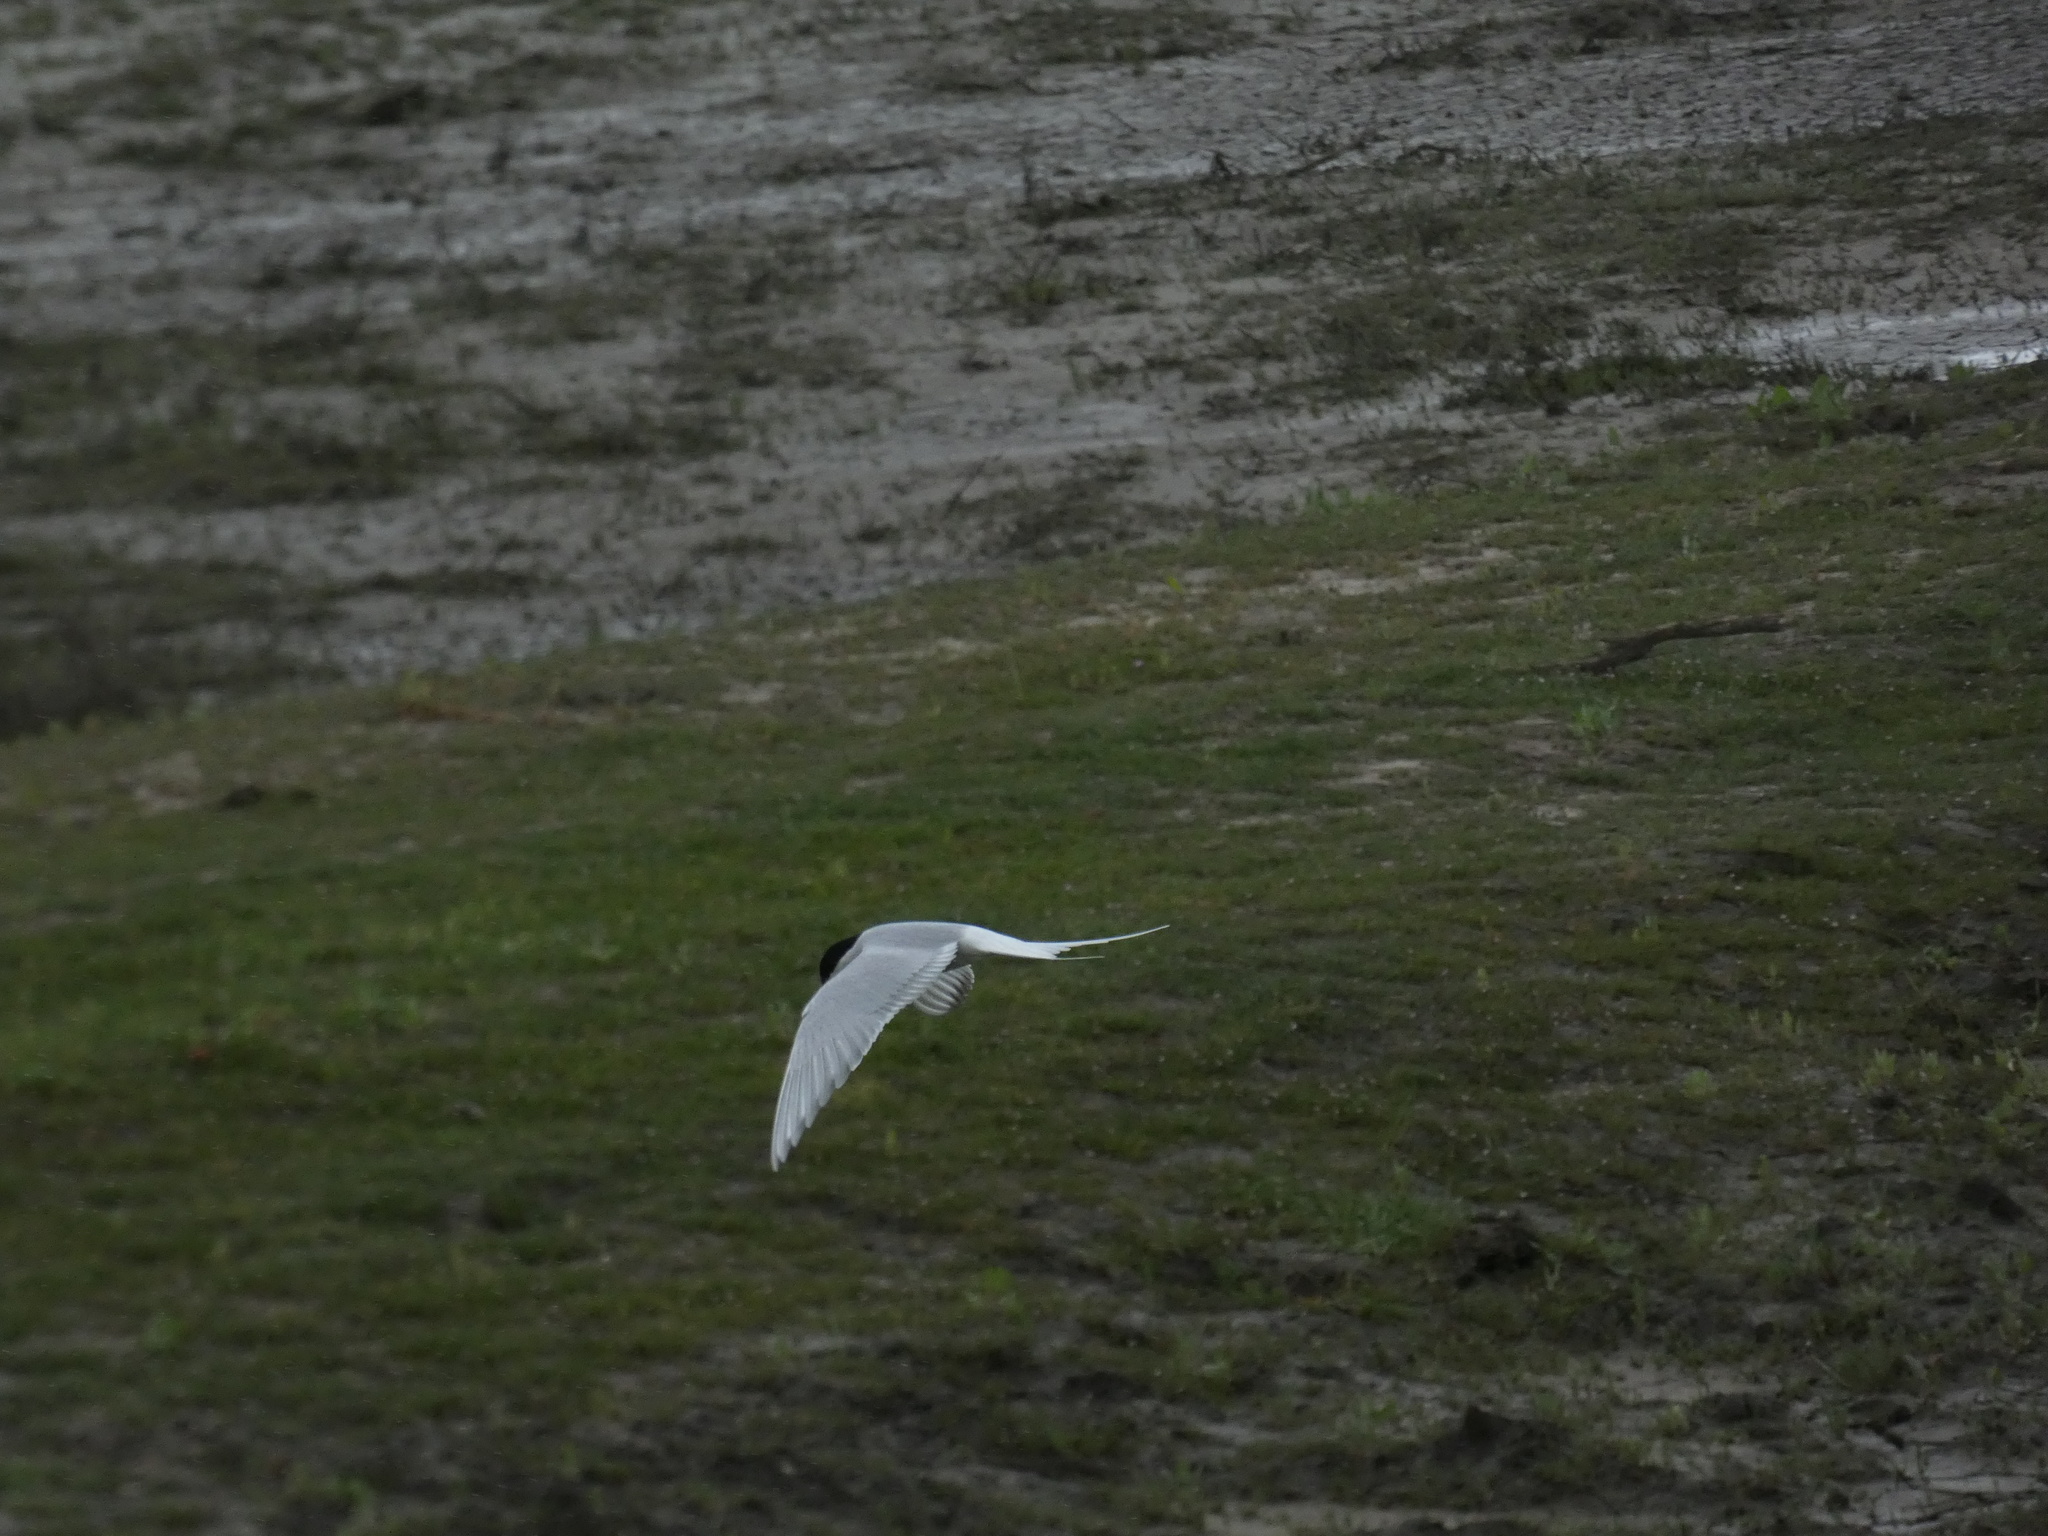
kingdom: Animalia
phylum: Chordata
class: Aves
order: Charadriiformes
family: Laridae
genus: Sterna
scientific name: Sterna paradisaea
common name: Arctic tern
